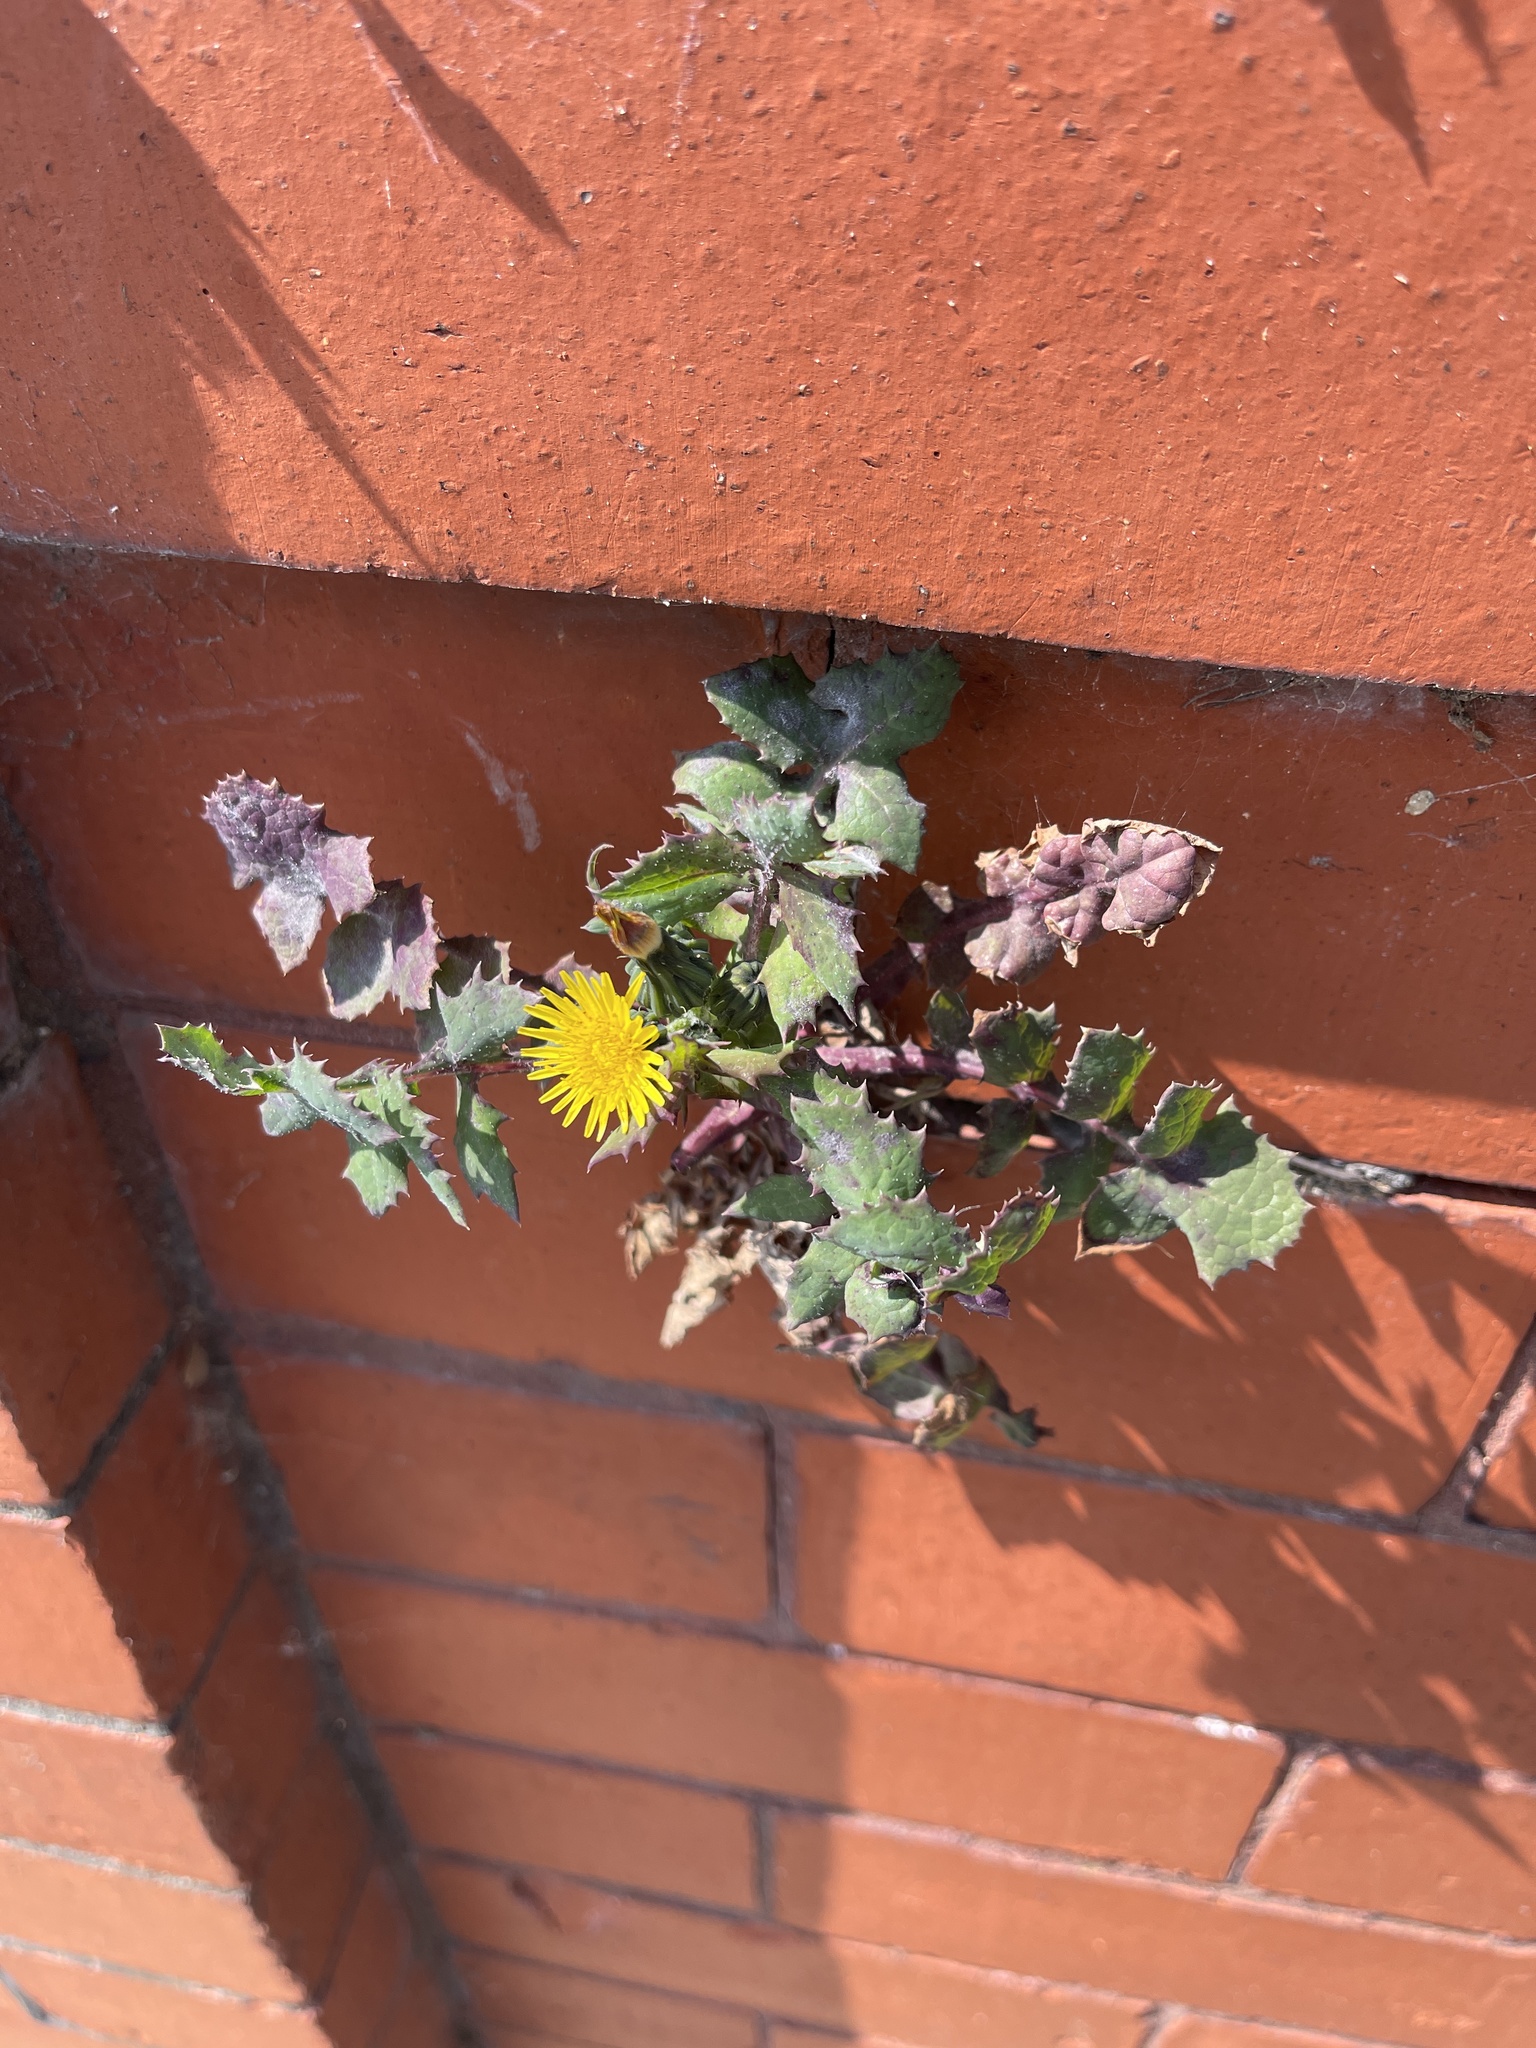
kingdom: Plantae
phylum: Tracheophyta
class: Magnoliopsida
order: Asterales
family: Asteraceae
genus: Sonchus
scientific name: Sonchus oleraceus
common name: Common sowthistle
